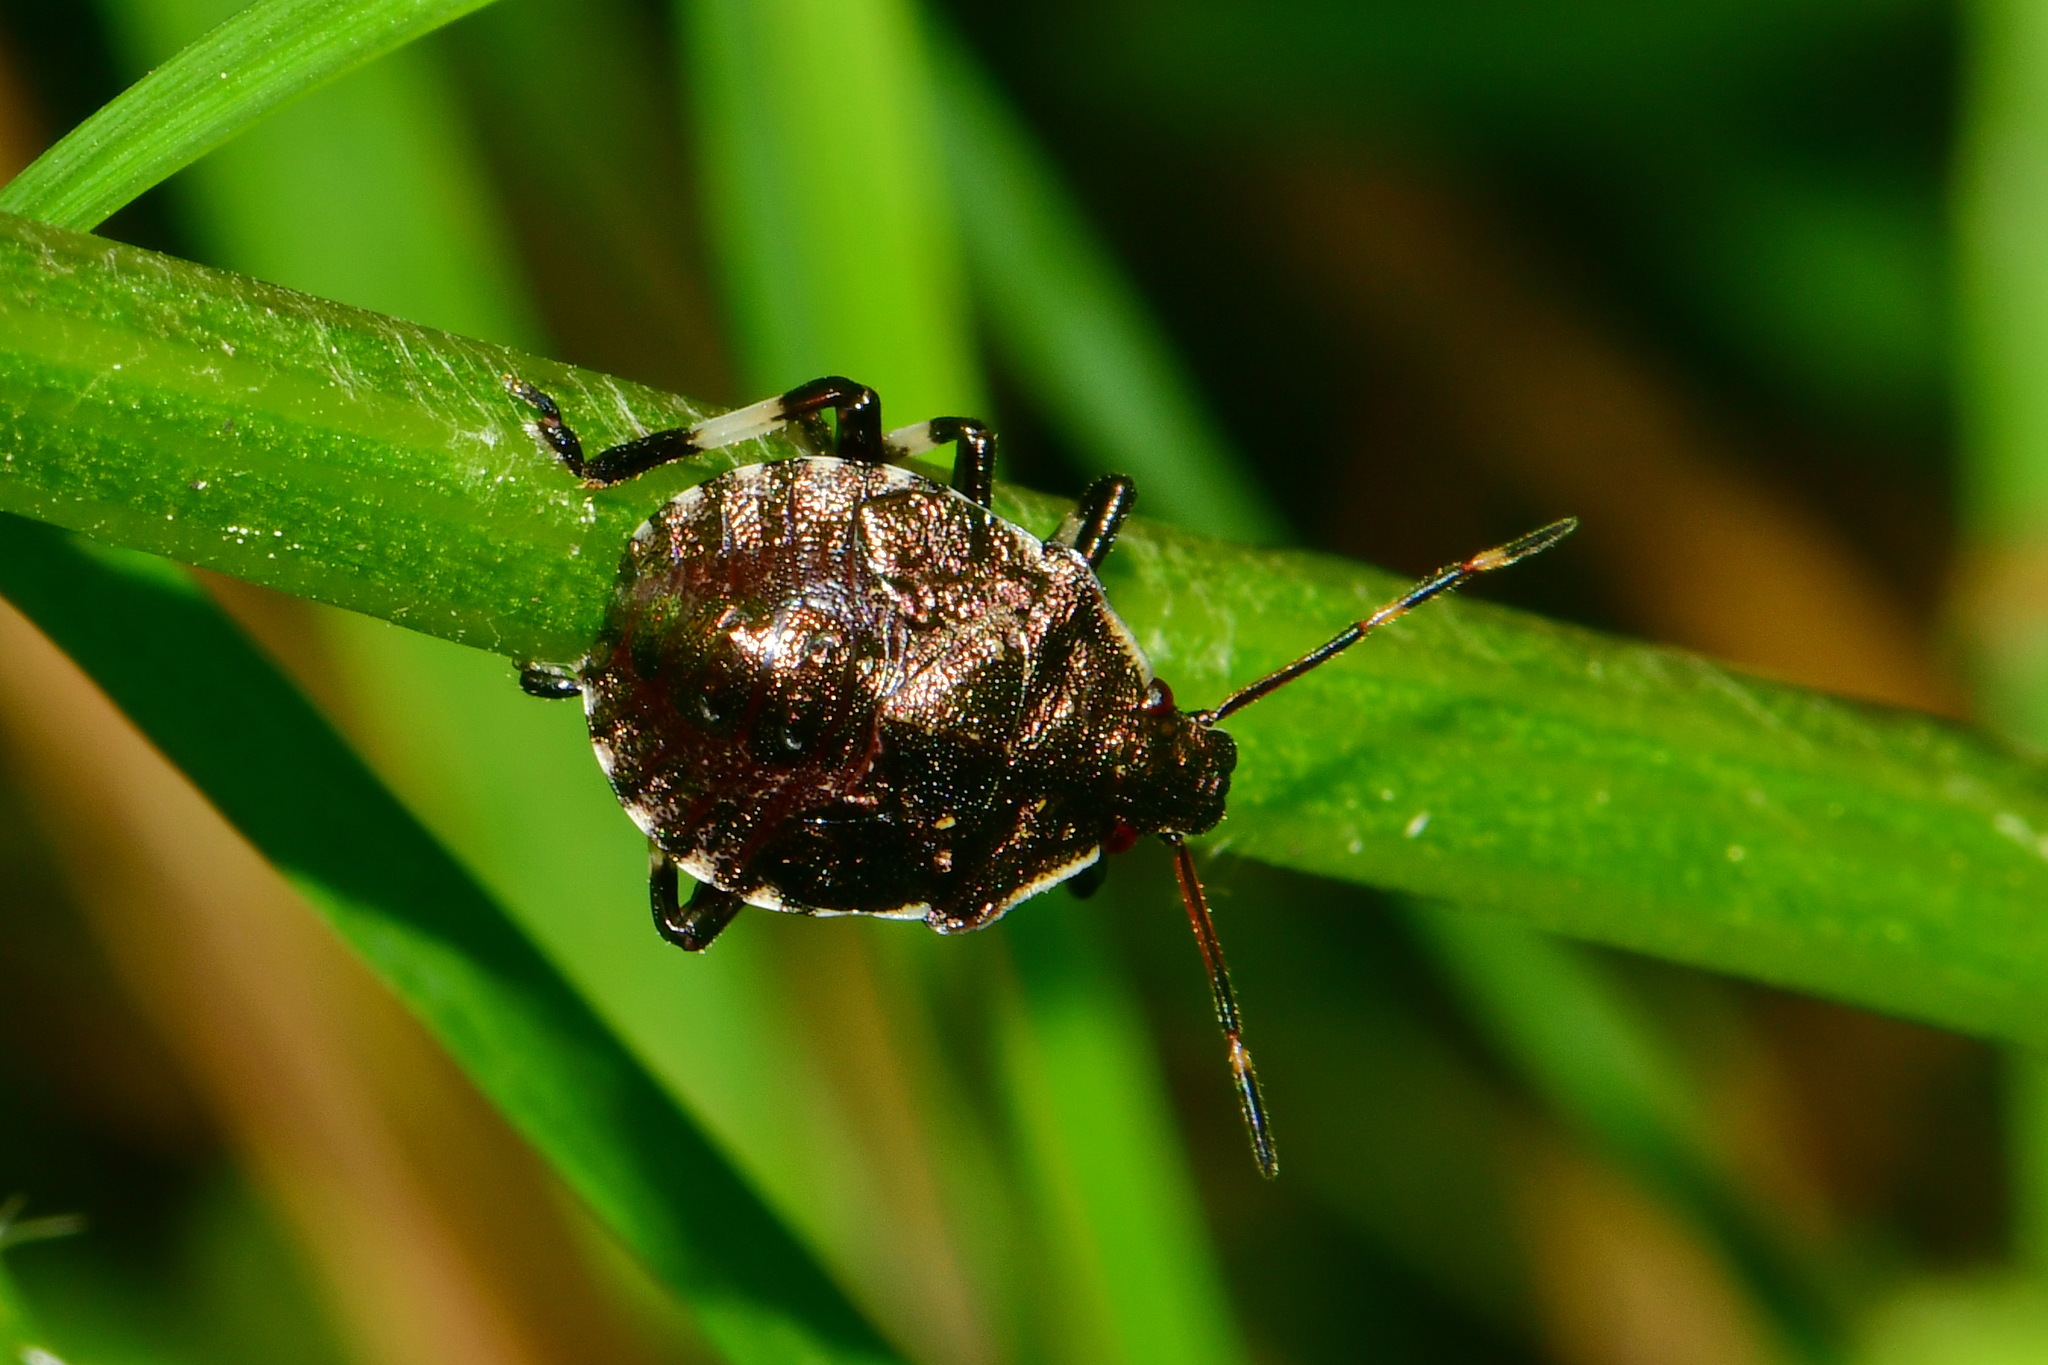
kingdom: Animalia
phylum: Arthropoda
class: Insecta
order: Hemiptera
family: Pentatomidae
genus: Picromerus
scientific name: Picromerus bidens
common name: Spiked shieldbug
